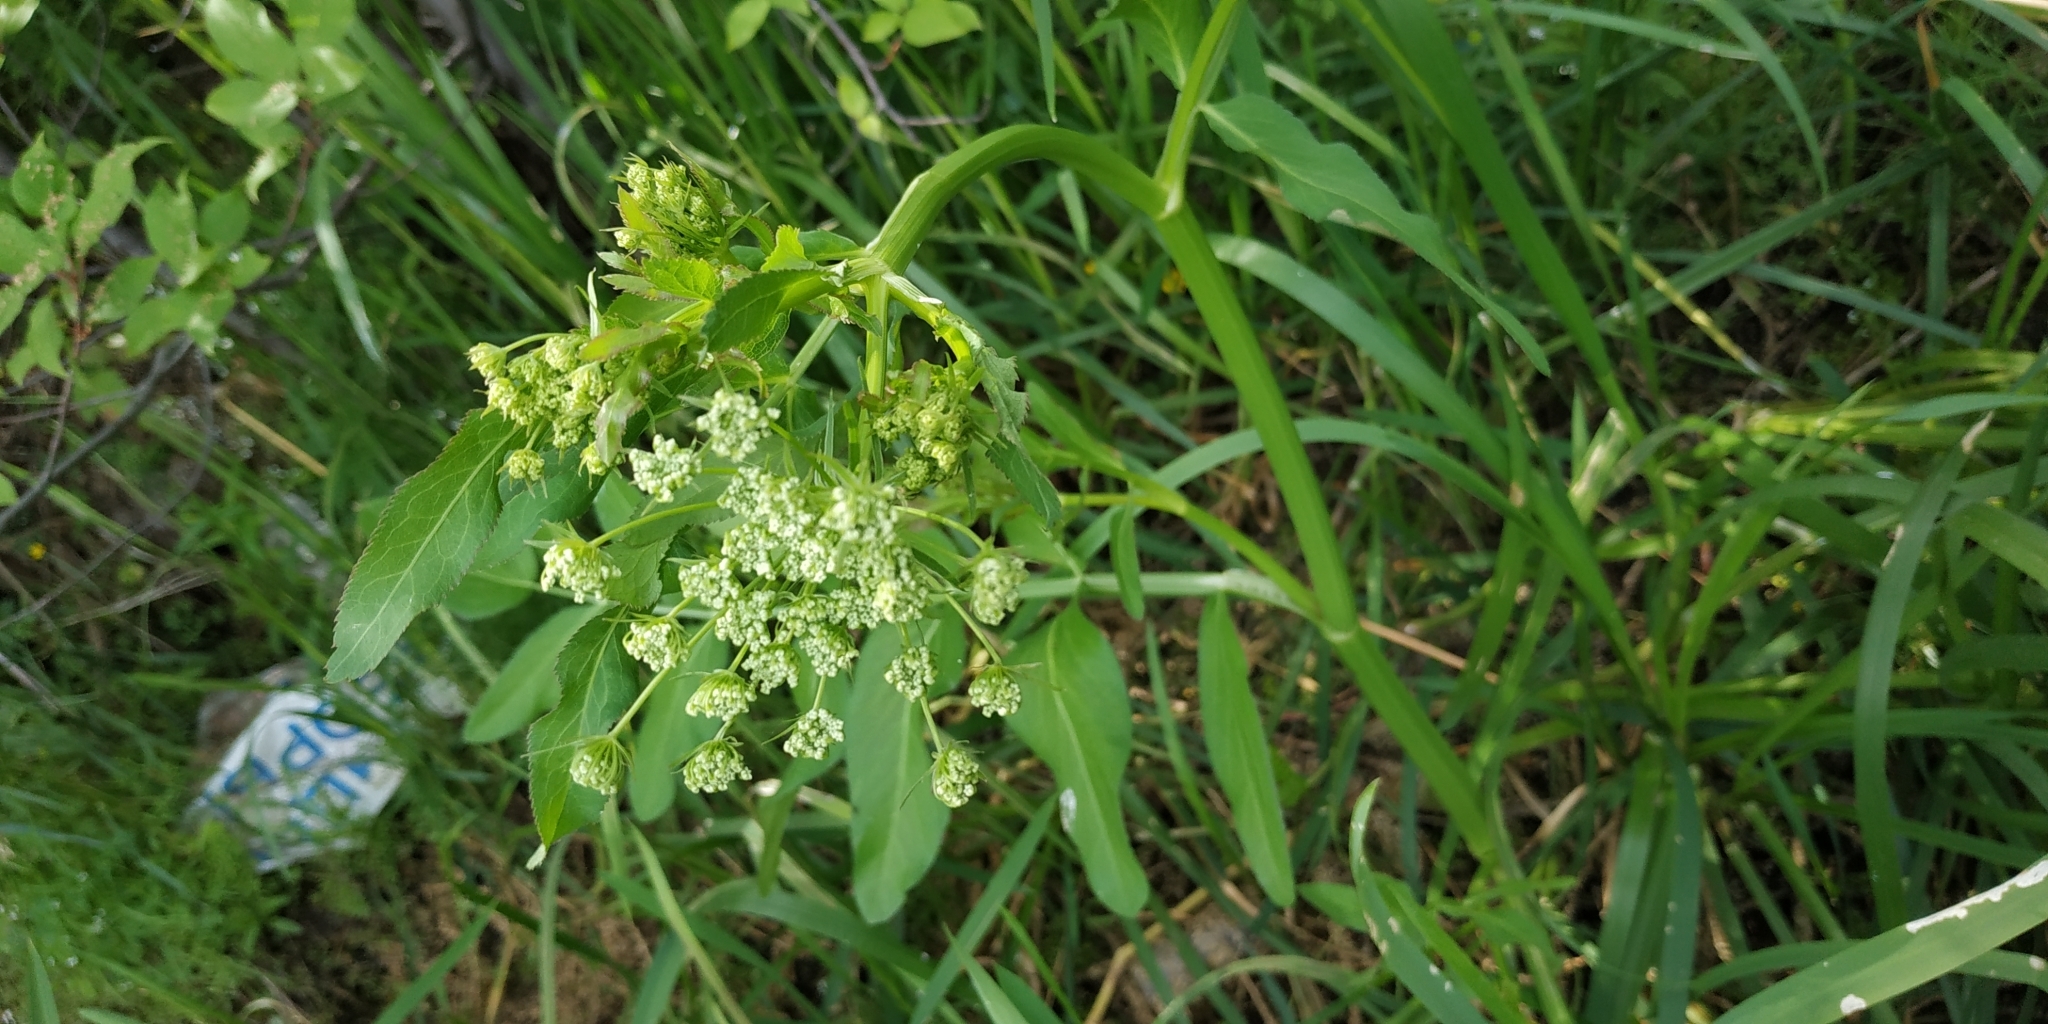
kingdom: Plantae
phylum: Tracheophyta
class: Magnoliopsida
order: Apiales
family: Apiaceae
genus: Sium
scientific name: Sium latifolium
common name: Greater water-parsnip
